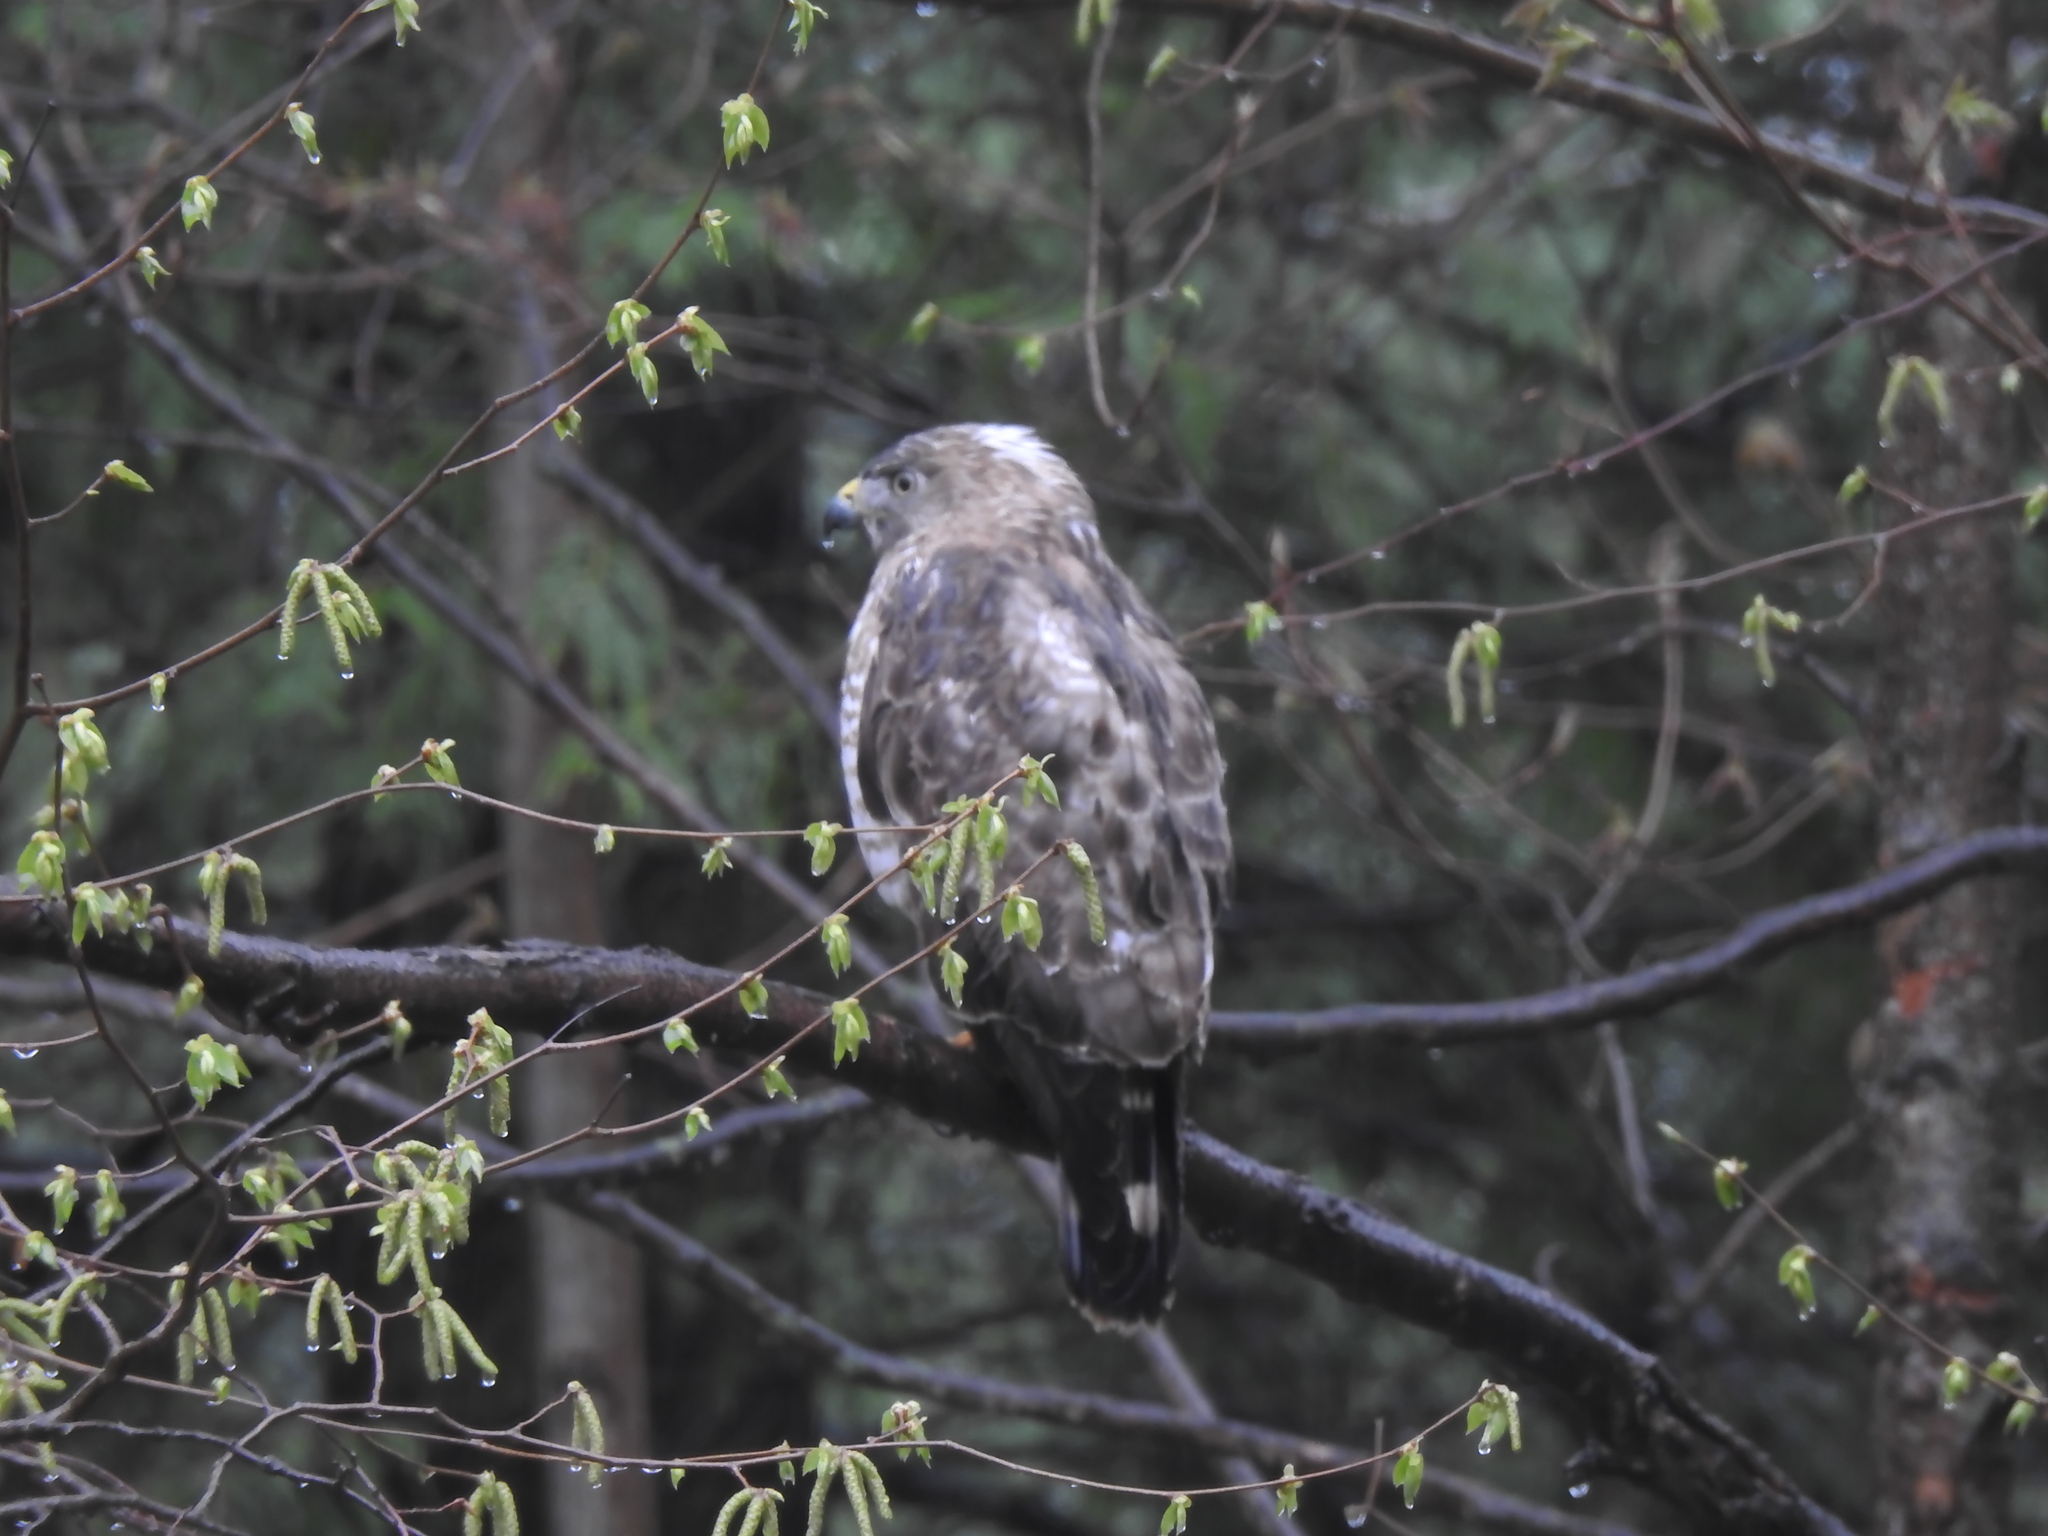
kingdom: Animalia
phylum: Chordata
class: Aves
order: Accipitriformes
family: Accipitridae
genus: Buteo
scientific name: Buteo platypterus
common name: Broad-winged hawk
